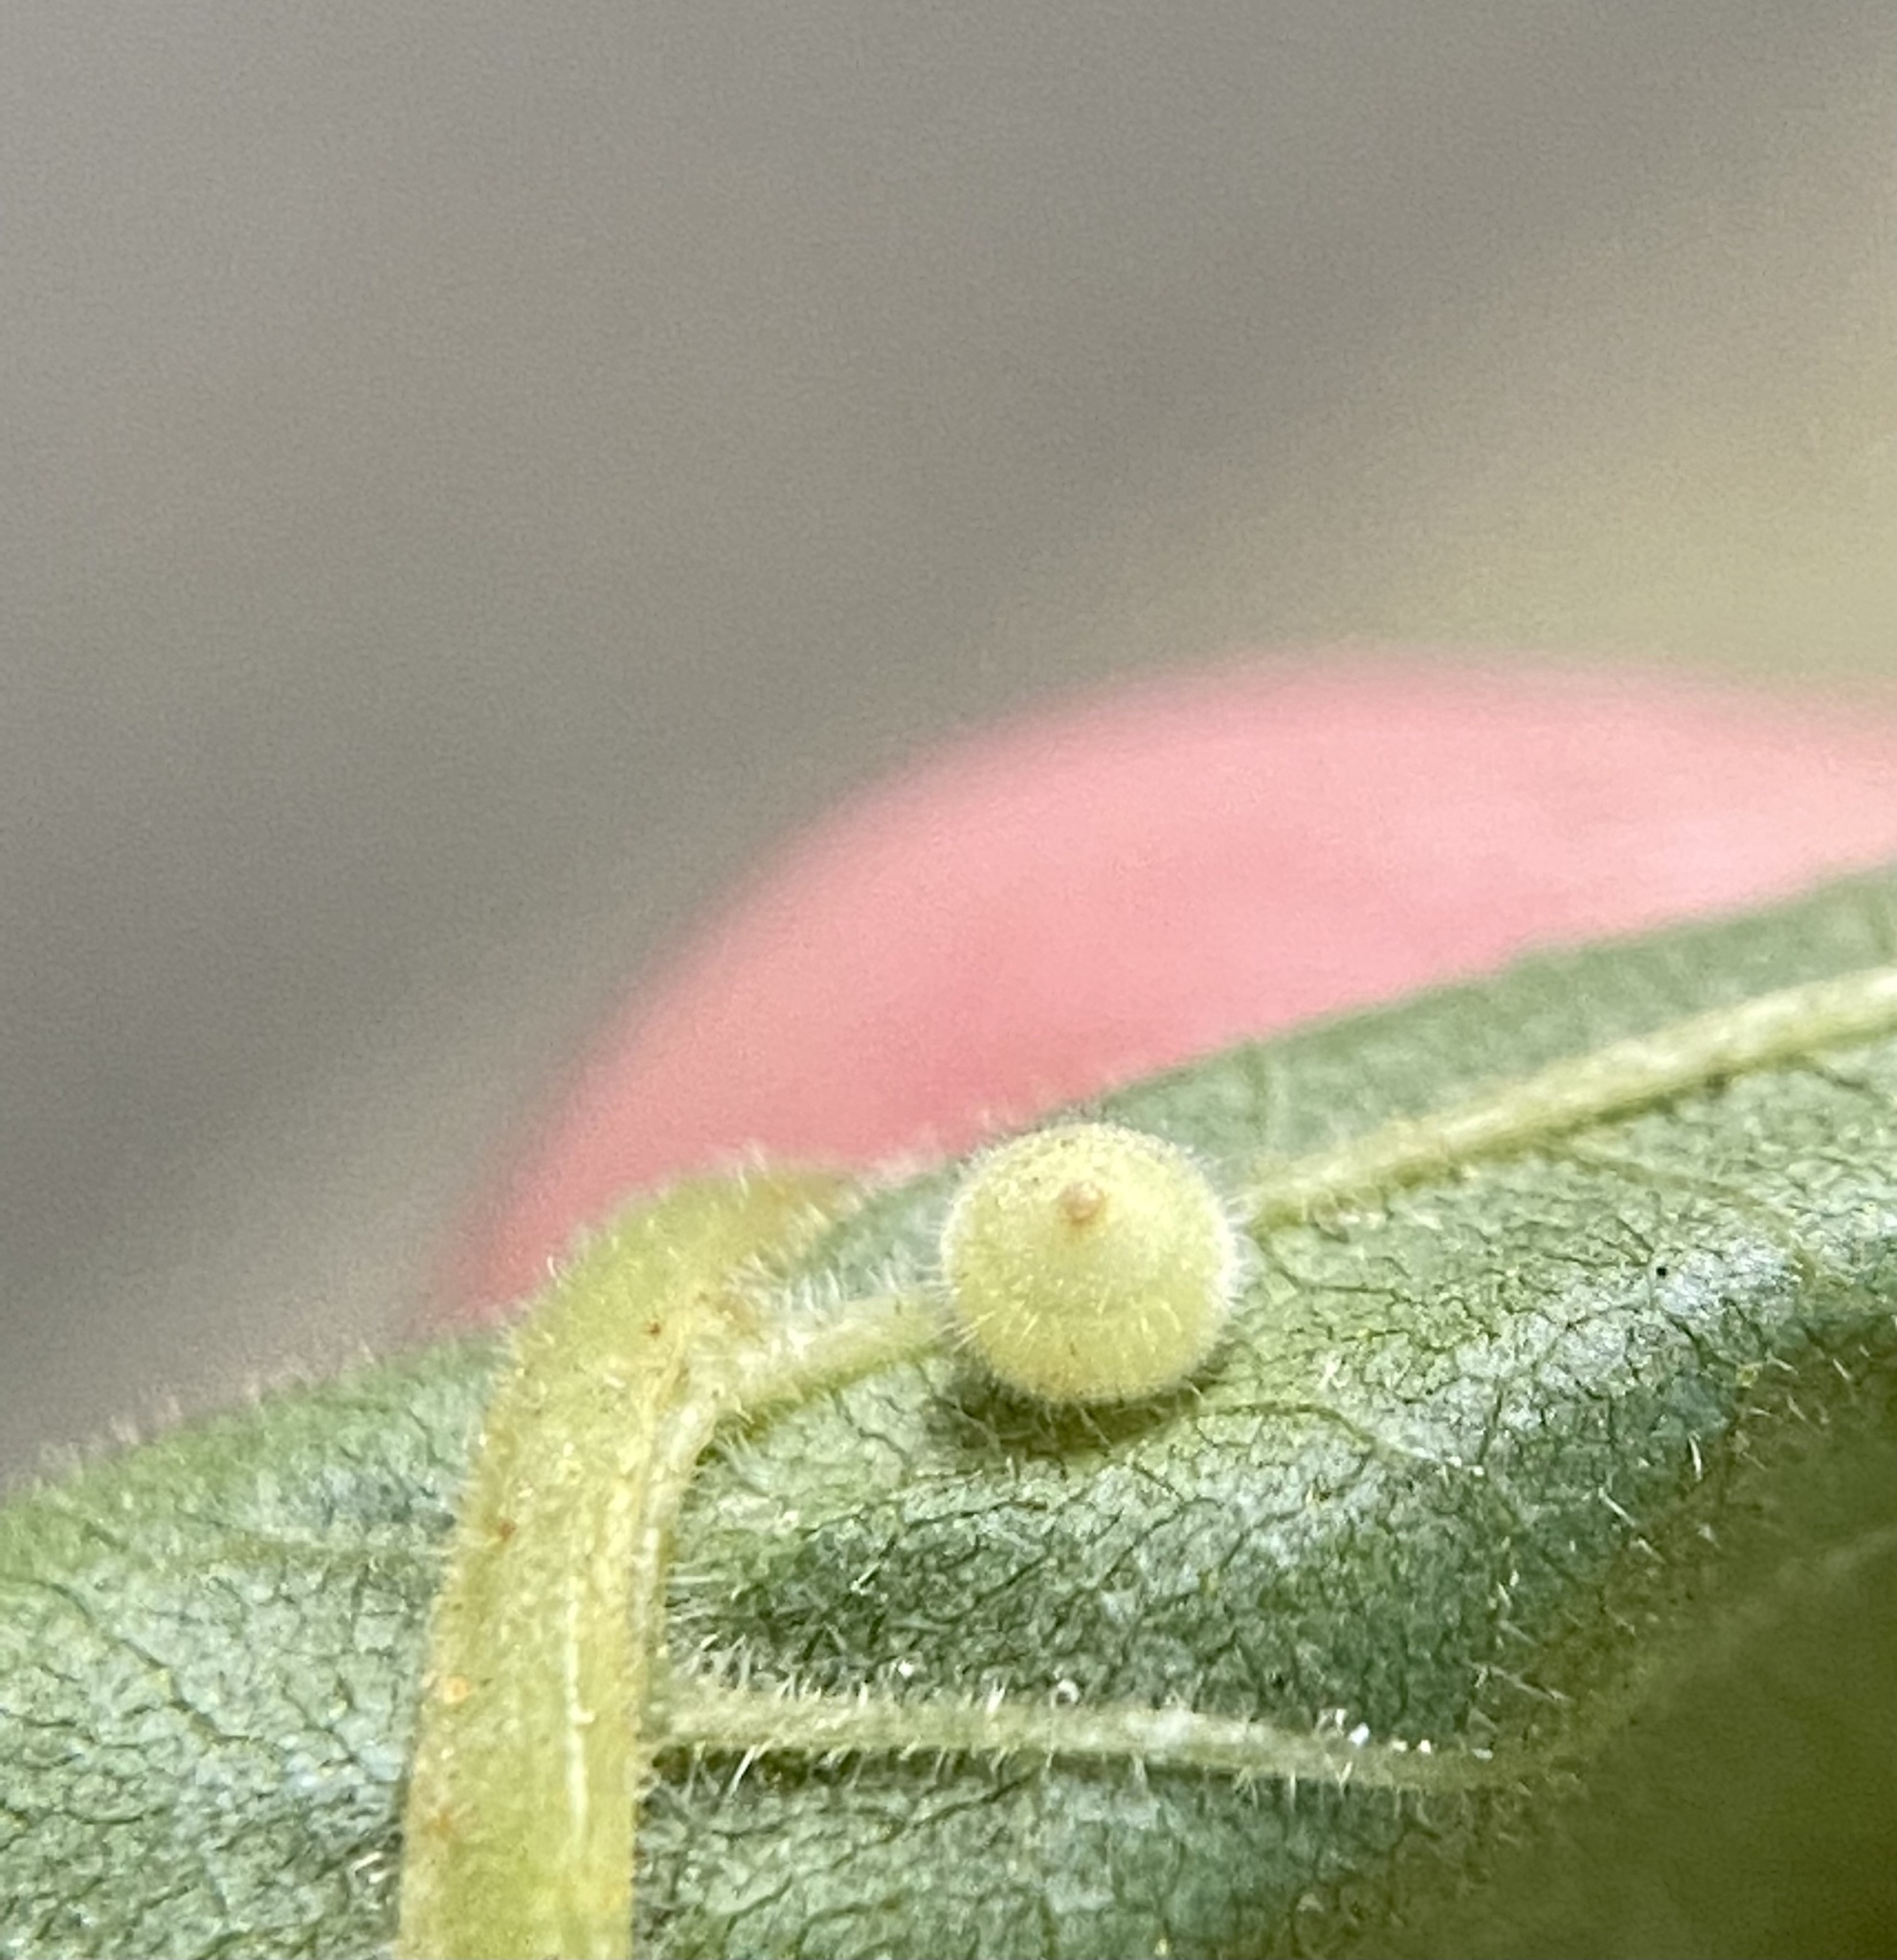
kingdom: Animalia
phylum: Arthropoda
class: Insecta
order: Diptera
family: Cecidomyiidae
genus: Caryomyia
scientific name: Caryomyia cilidolium
